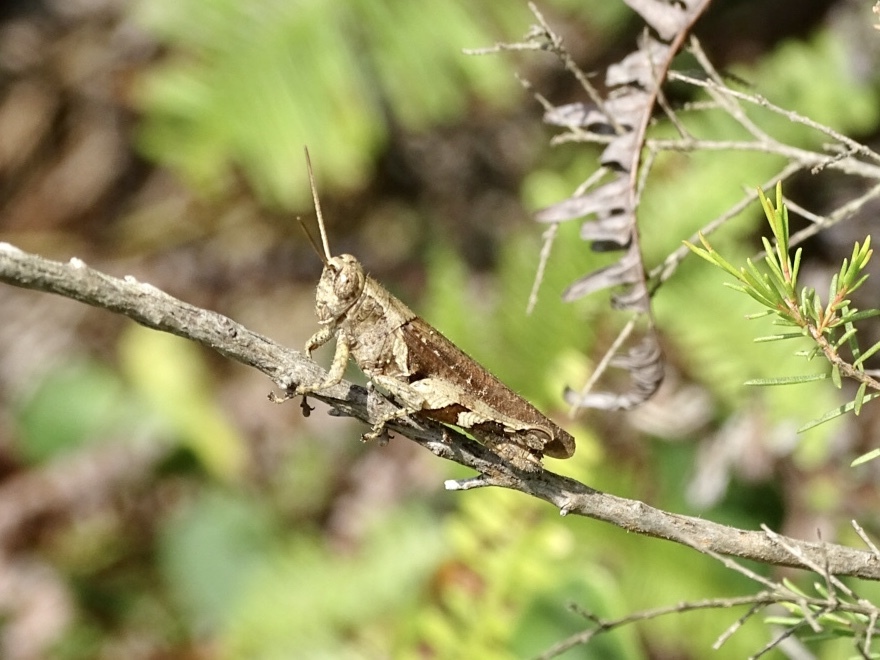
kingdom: Animalia
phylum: Arthropoda
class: Insecta
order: Orthoptera
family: Acrididae
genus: Xenocatantops
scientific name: Xenocatantops brachycerus
